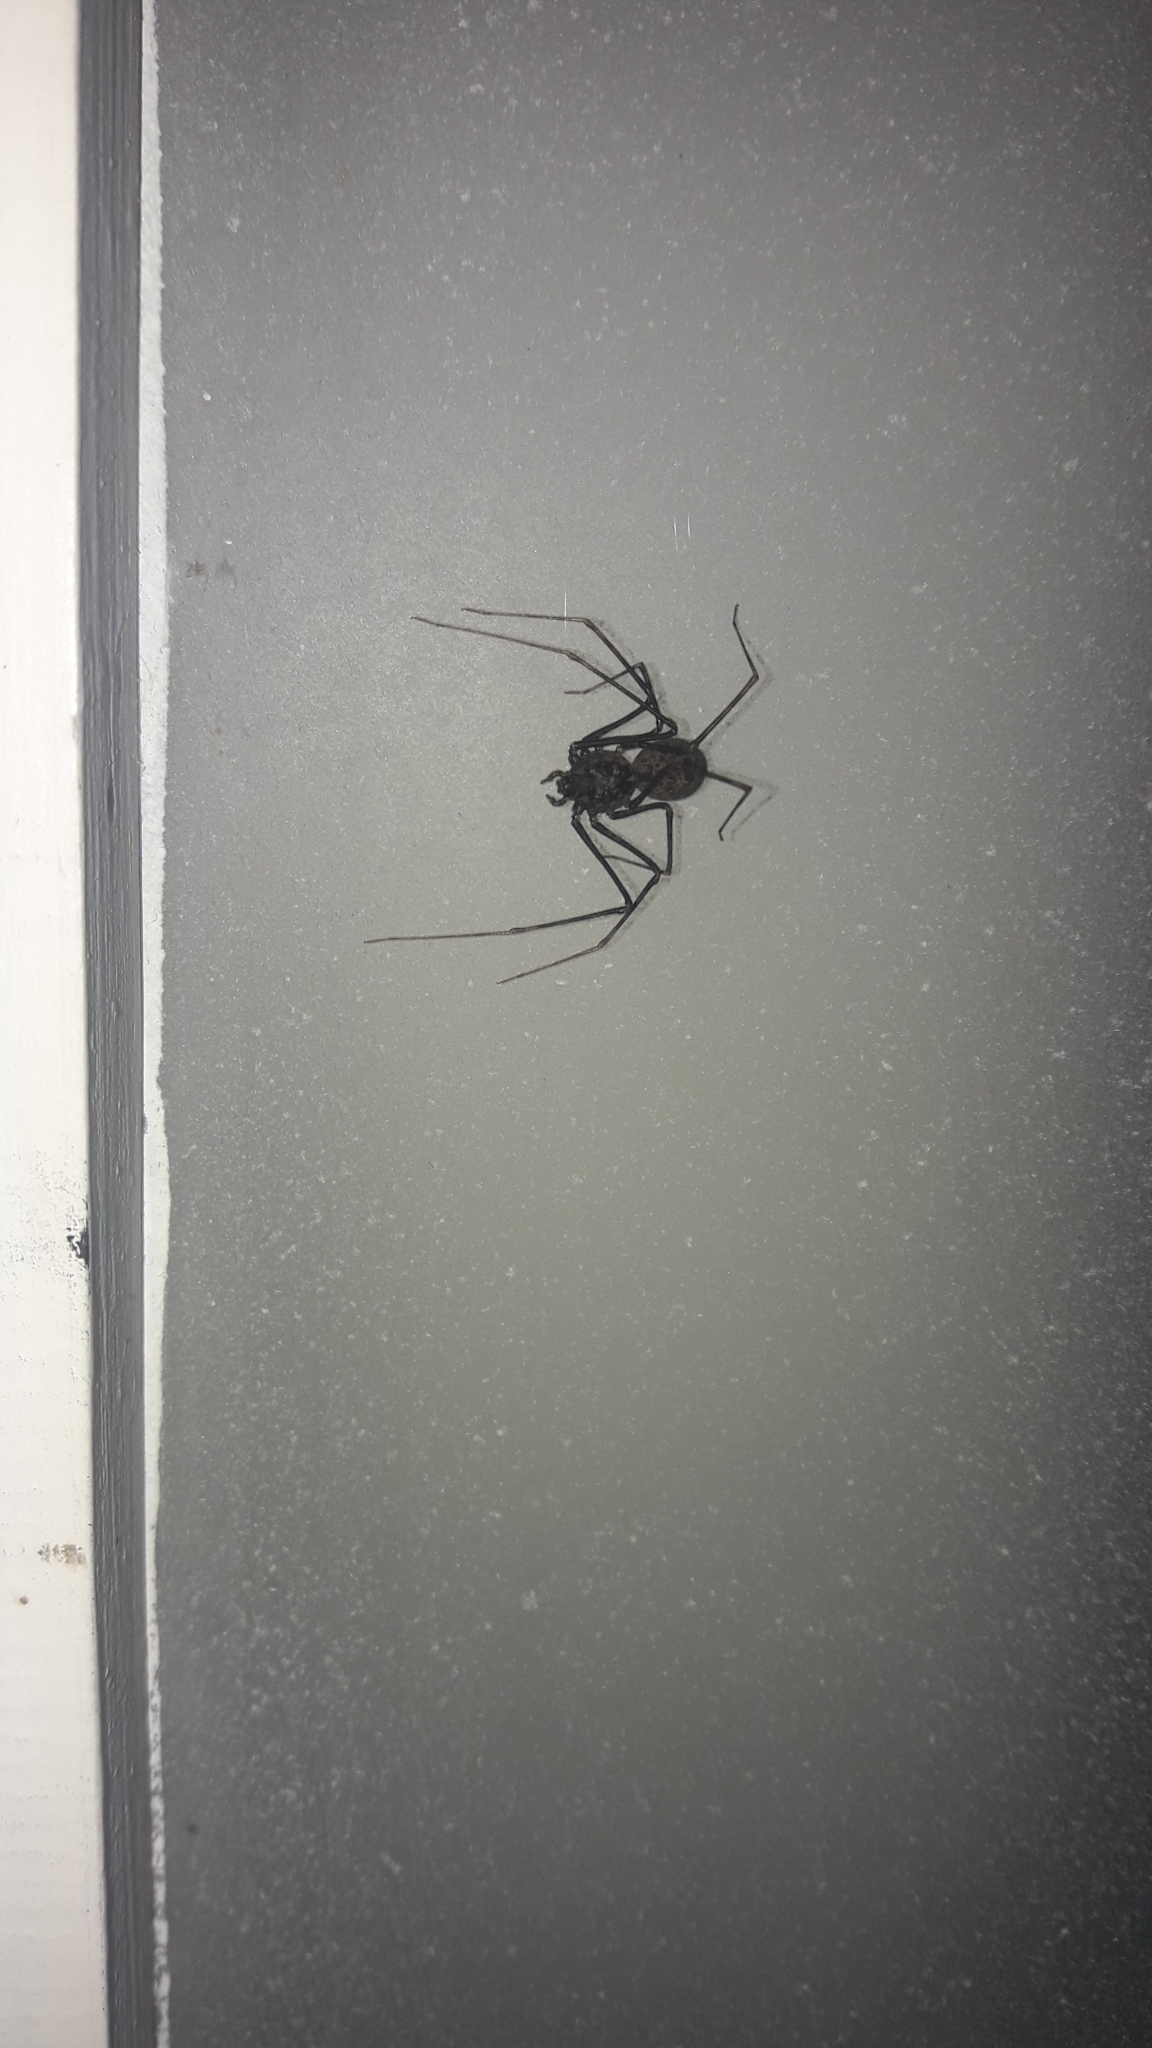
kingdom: Animalia
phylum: Arthropoda
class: Arachnida
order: Araneae
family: Scytodidae
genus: Scytodes
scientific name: Scytodes globula
